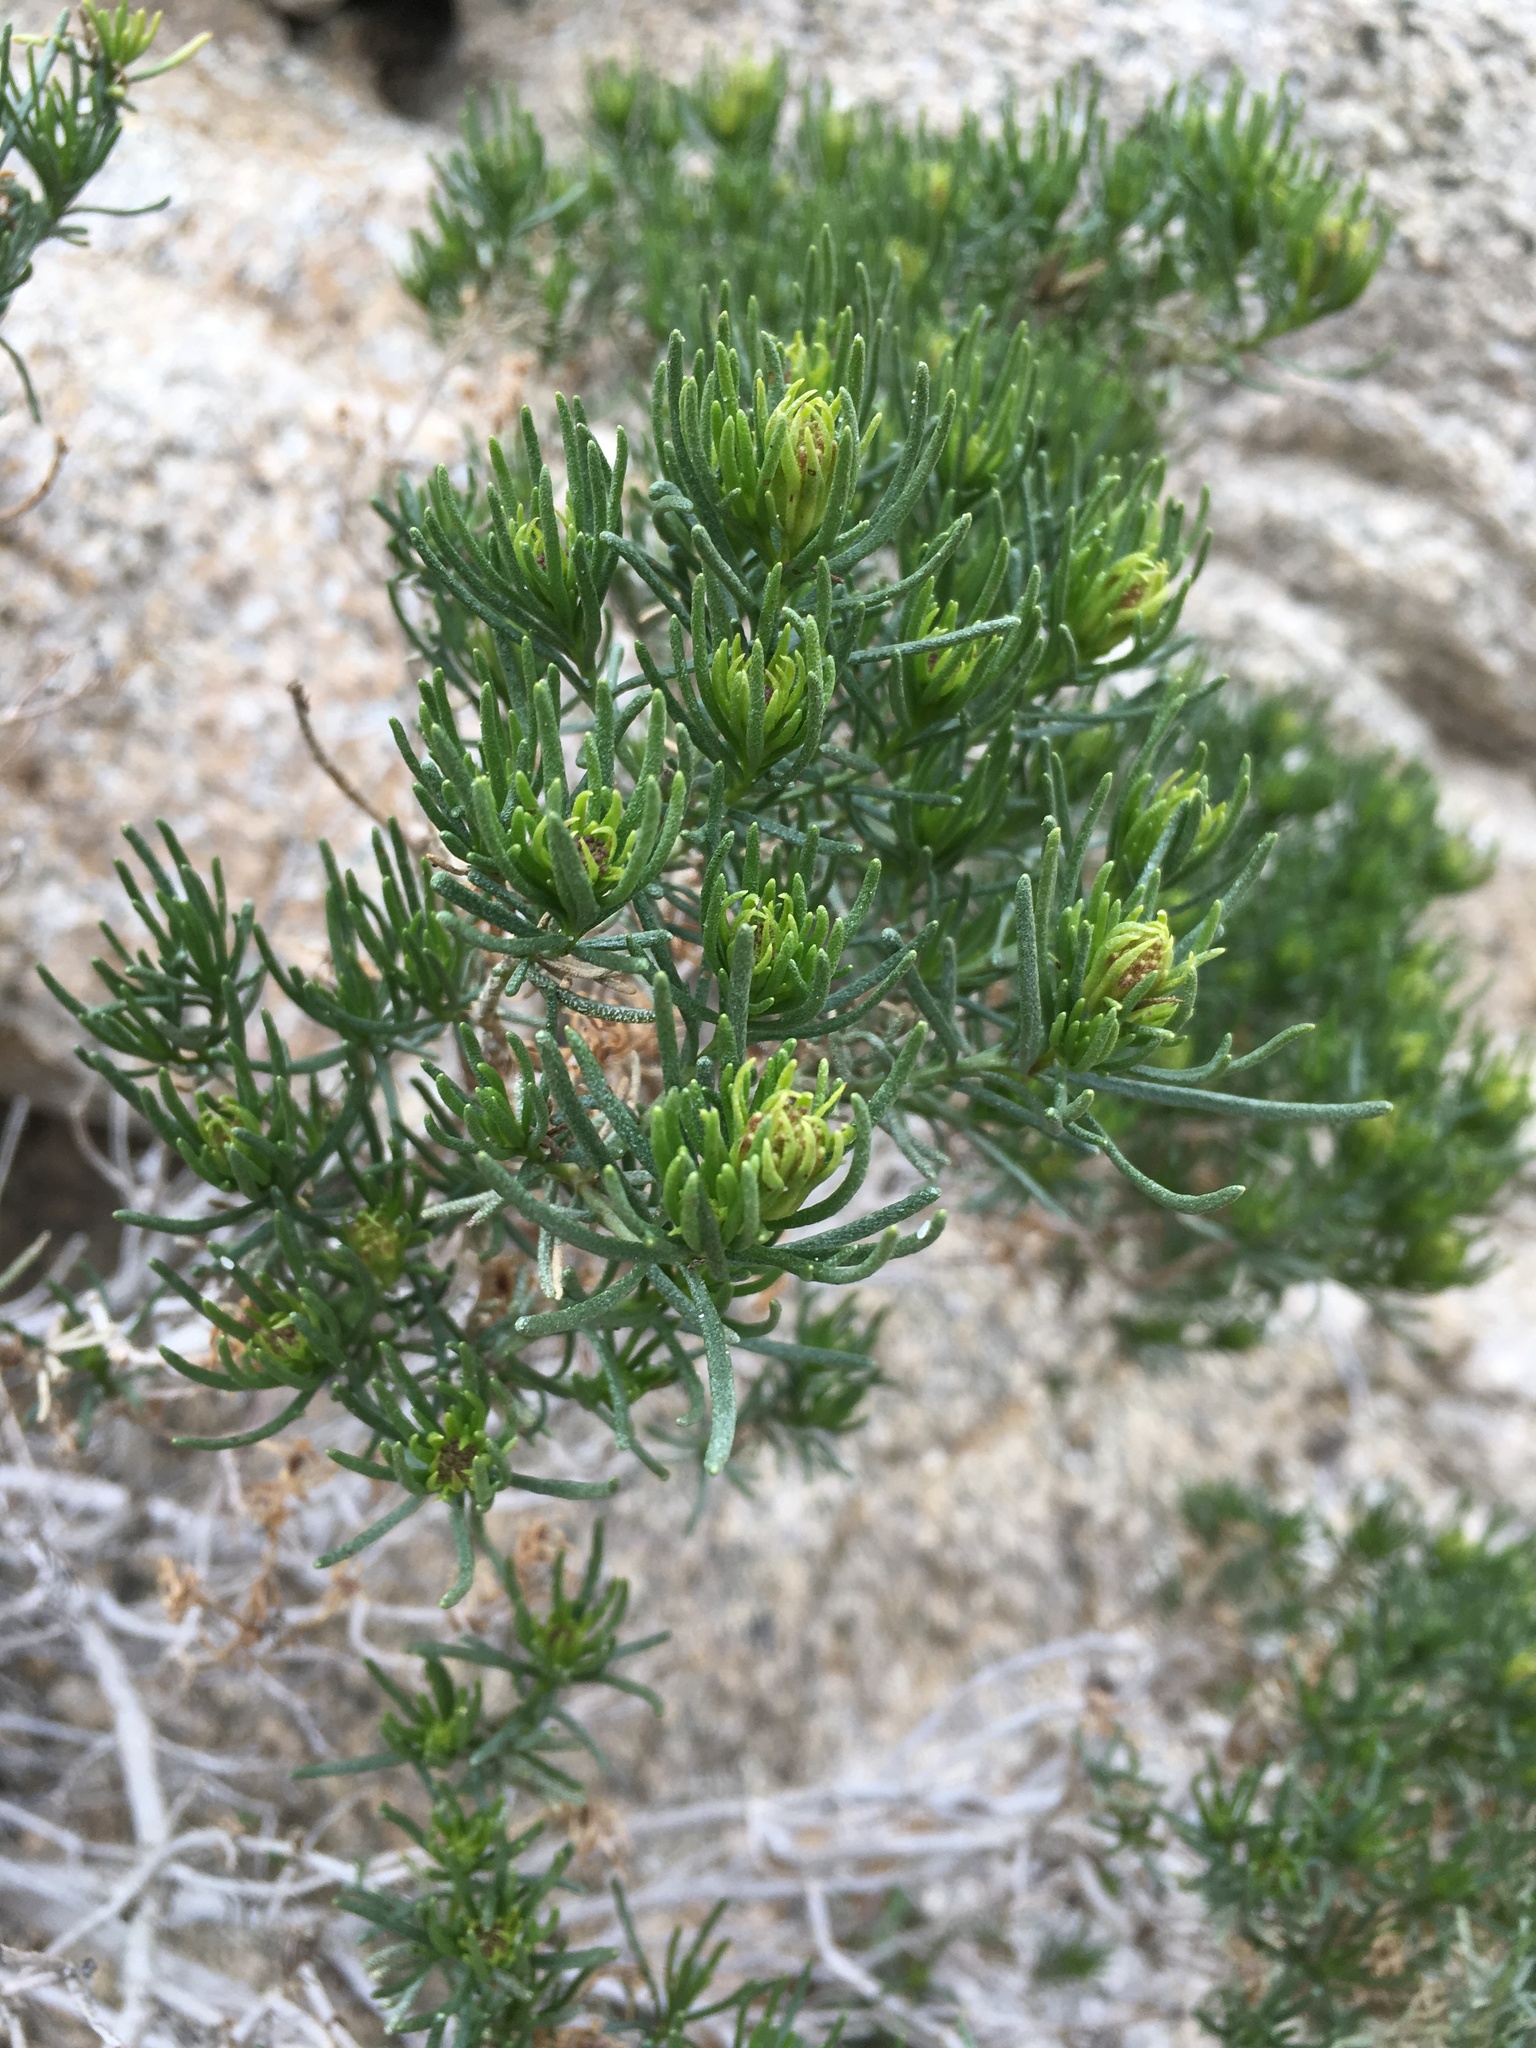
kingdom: Plantae
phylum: Tracheophyta
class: Magnoliopsida
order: Asterales
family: Asteraceae
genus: Peucephyllum
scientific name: Peucephyllum schottii
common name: Pygmy-cedar
